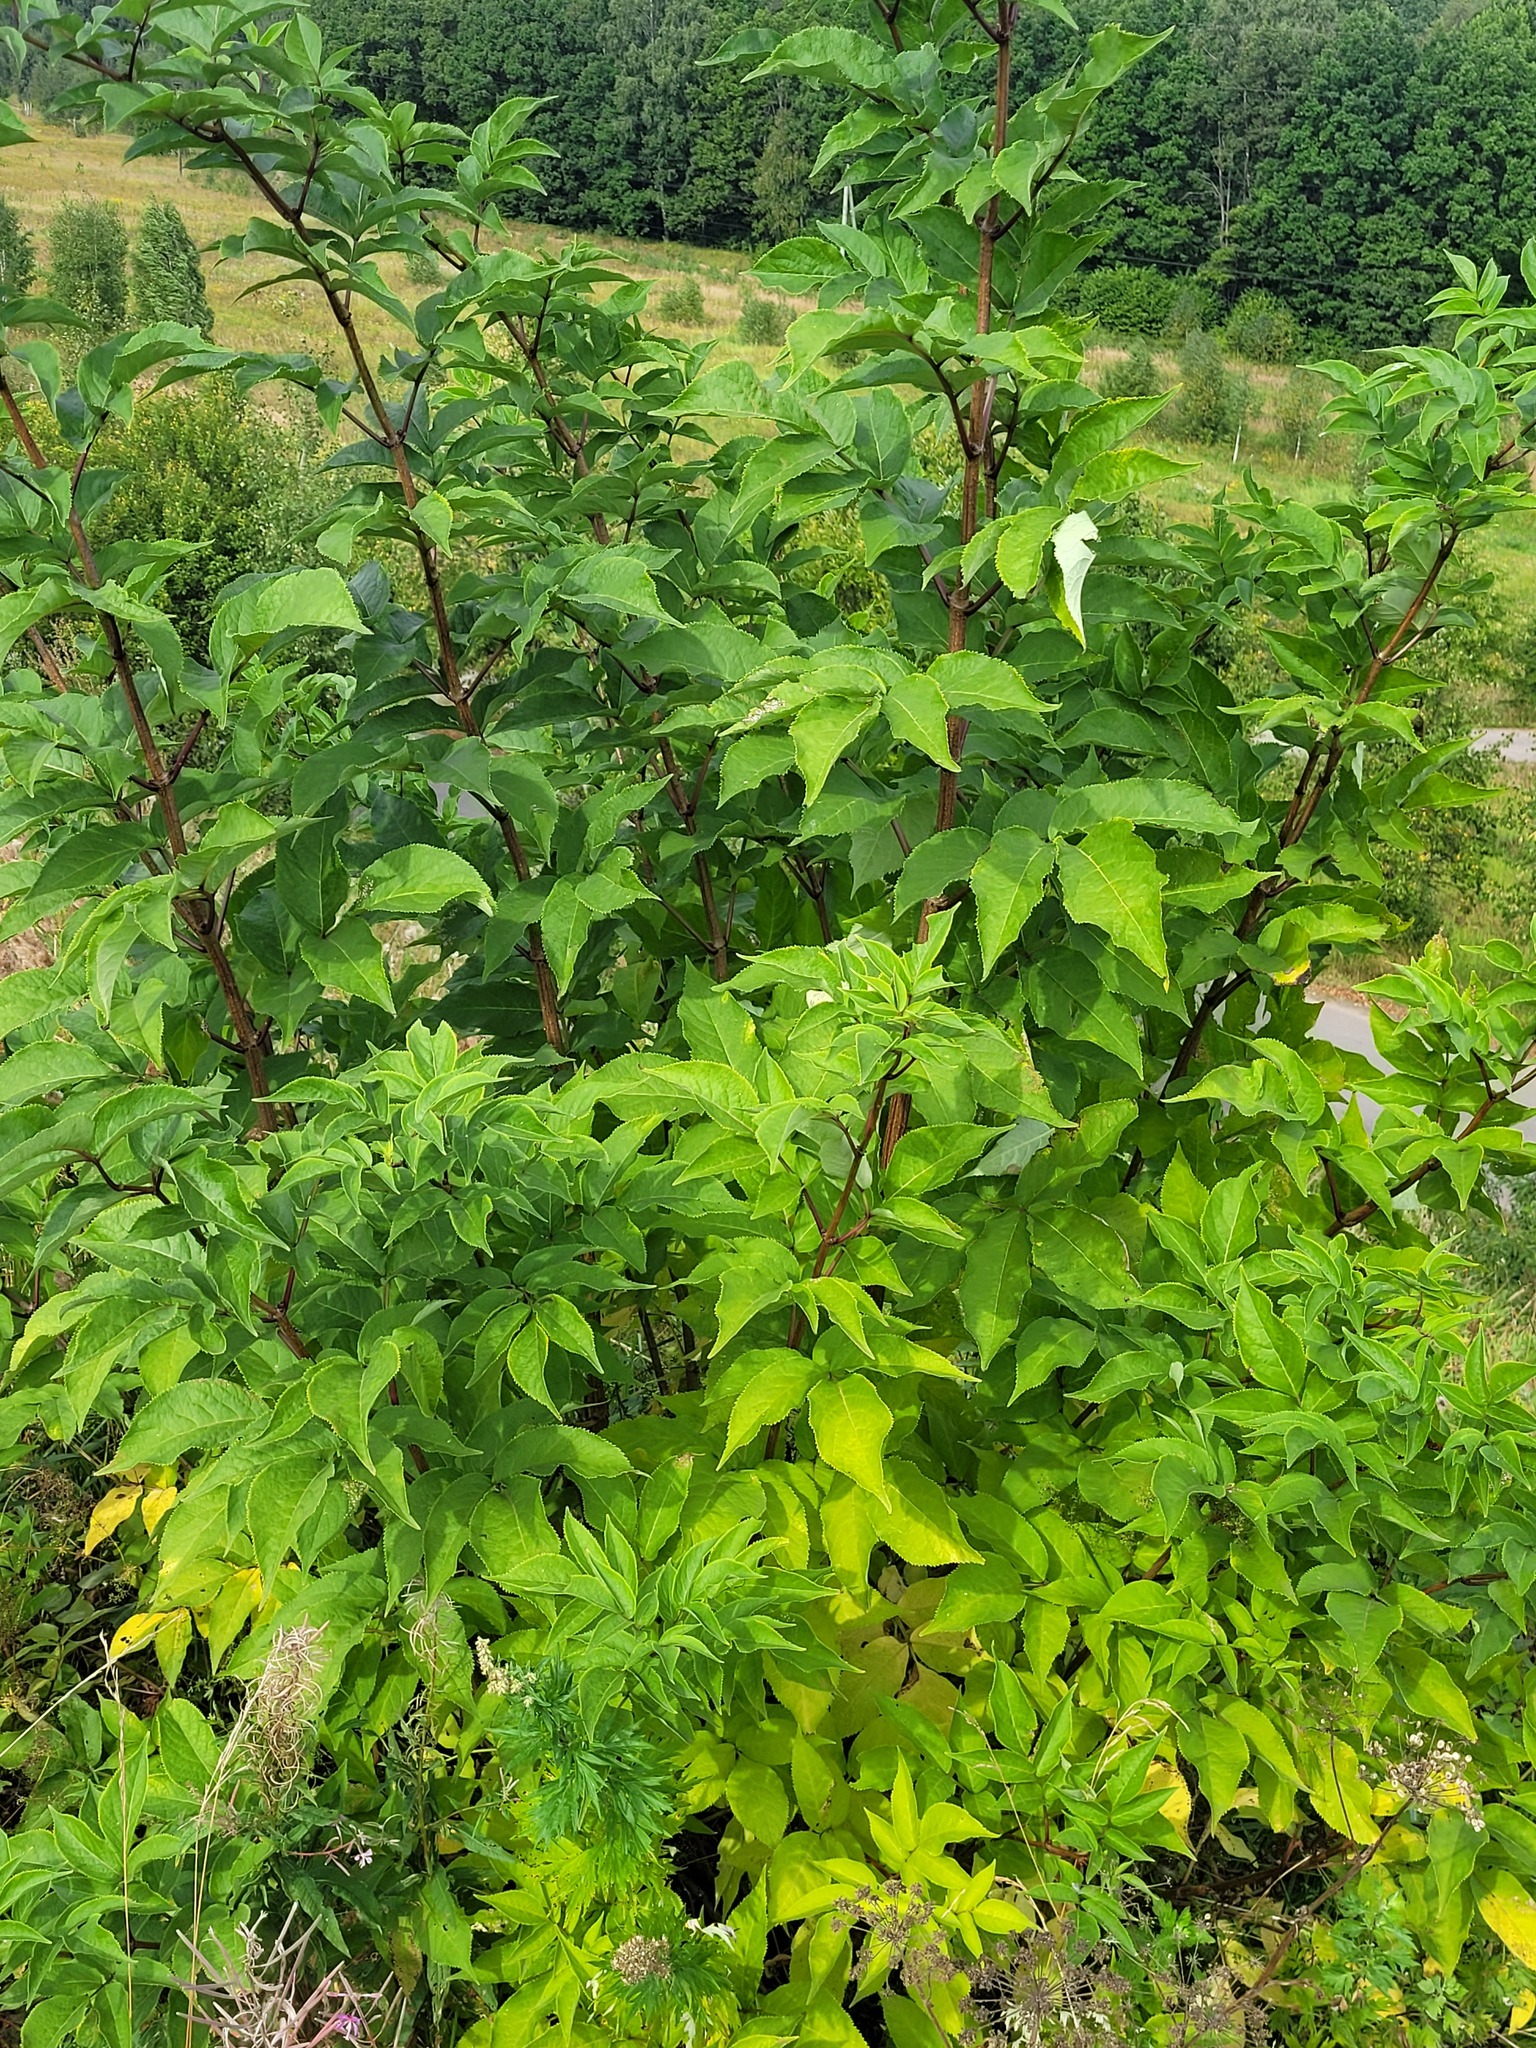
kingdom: Plantae
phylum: Tracheophyta
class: Magnoliopsida
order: Dipsacales
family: Viburnaceae
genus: Sambucus
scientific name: Sambucus racemosa
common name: Red-berried elder
